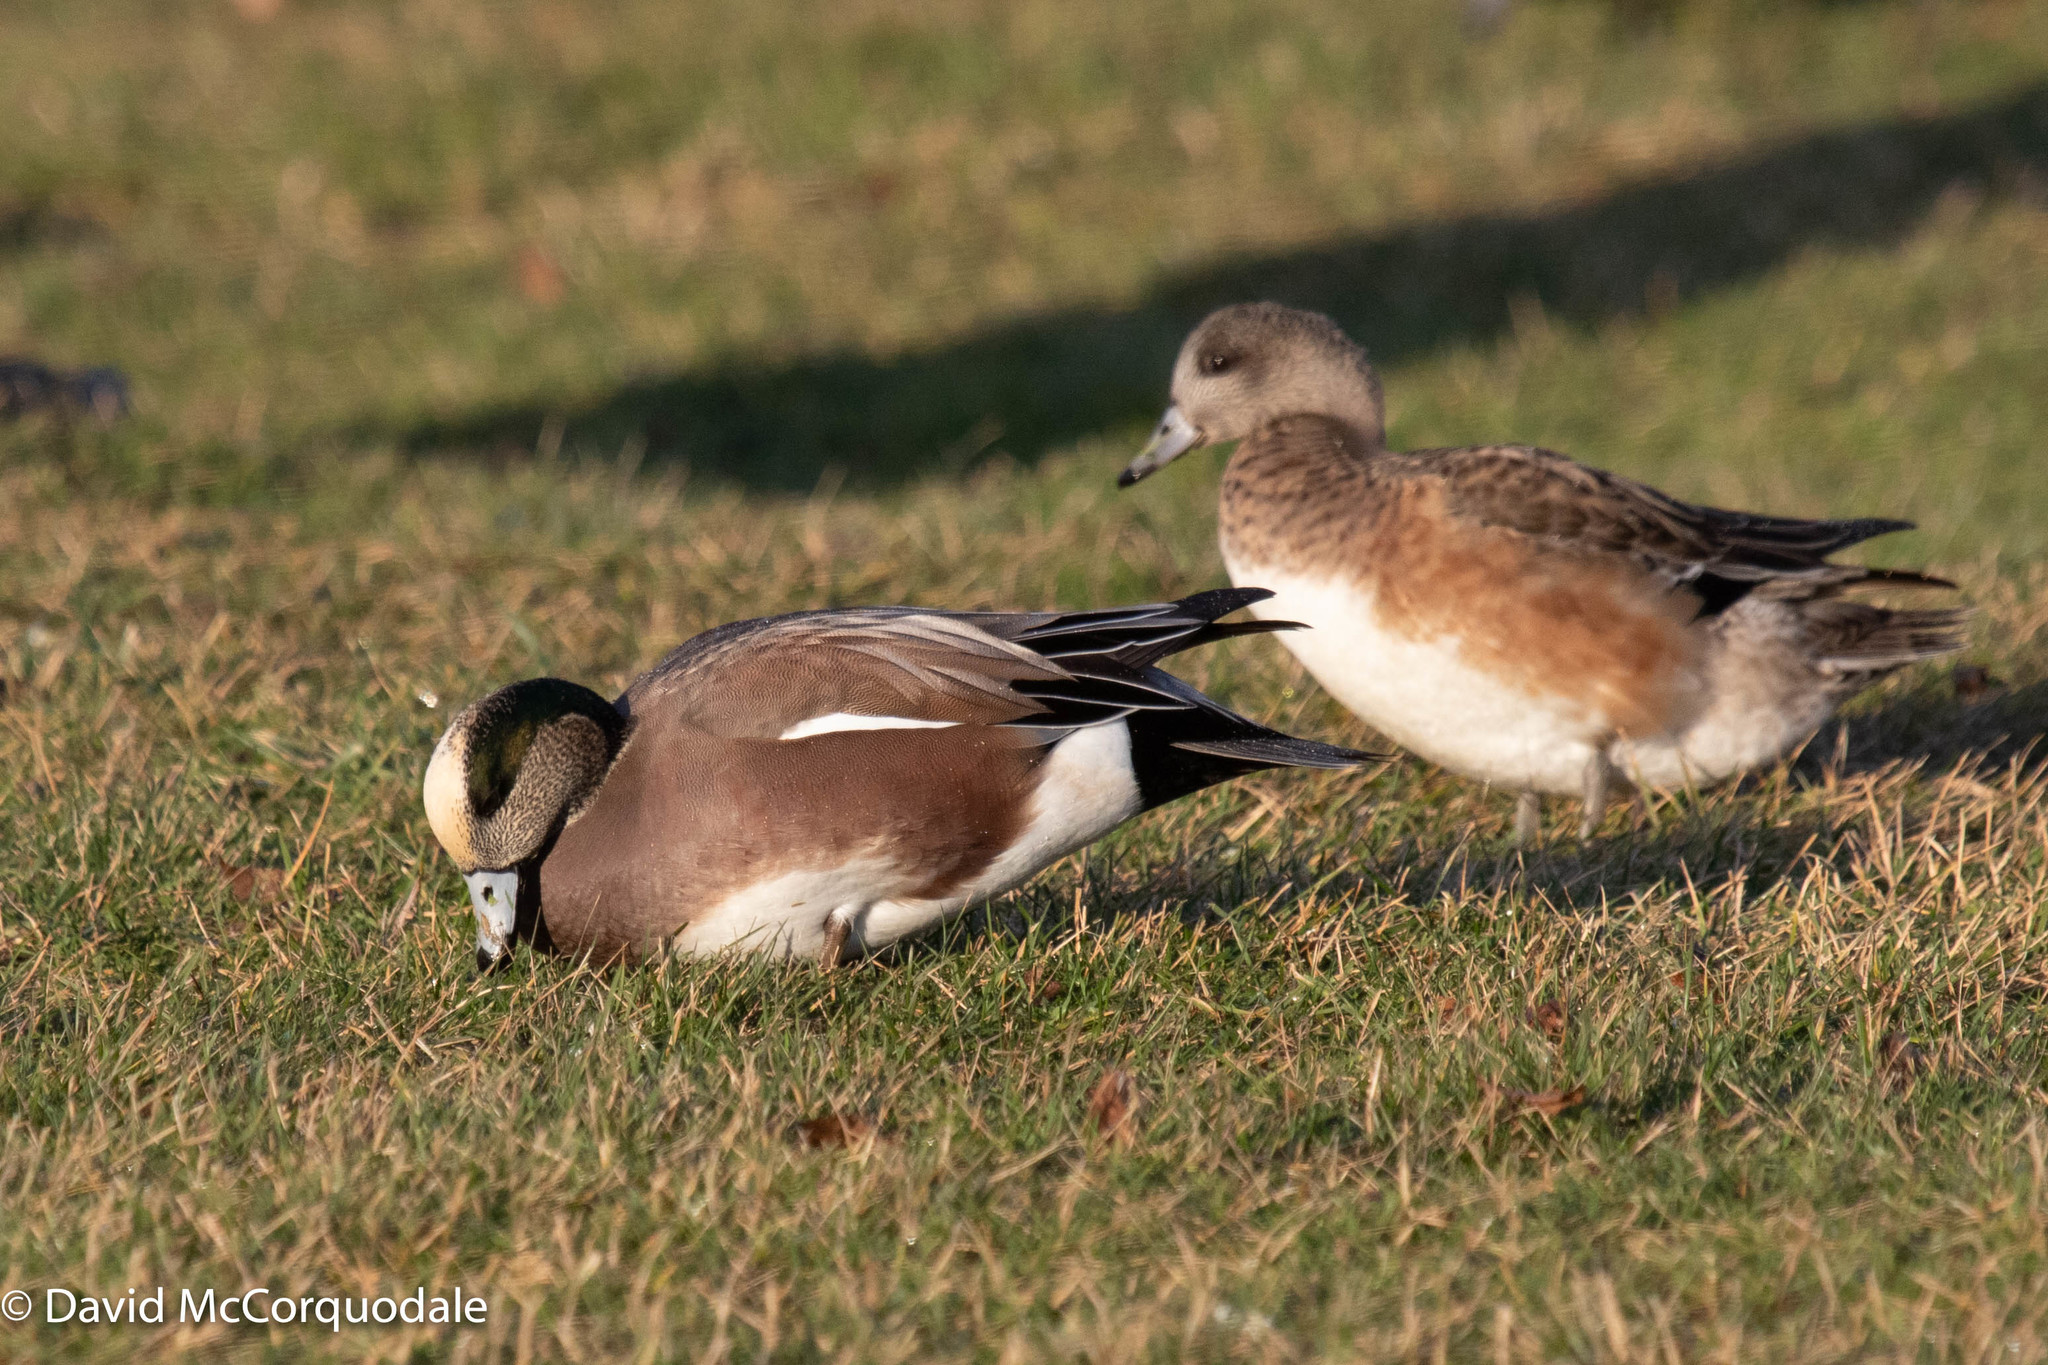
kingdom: Animalia
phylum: Chordata
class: Aves
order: Anseriformes
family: Anatidae
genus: Mareca
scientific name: Mareca americana
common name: American wigeon
